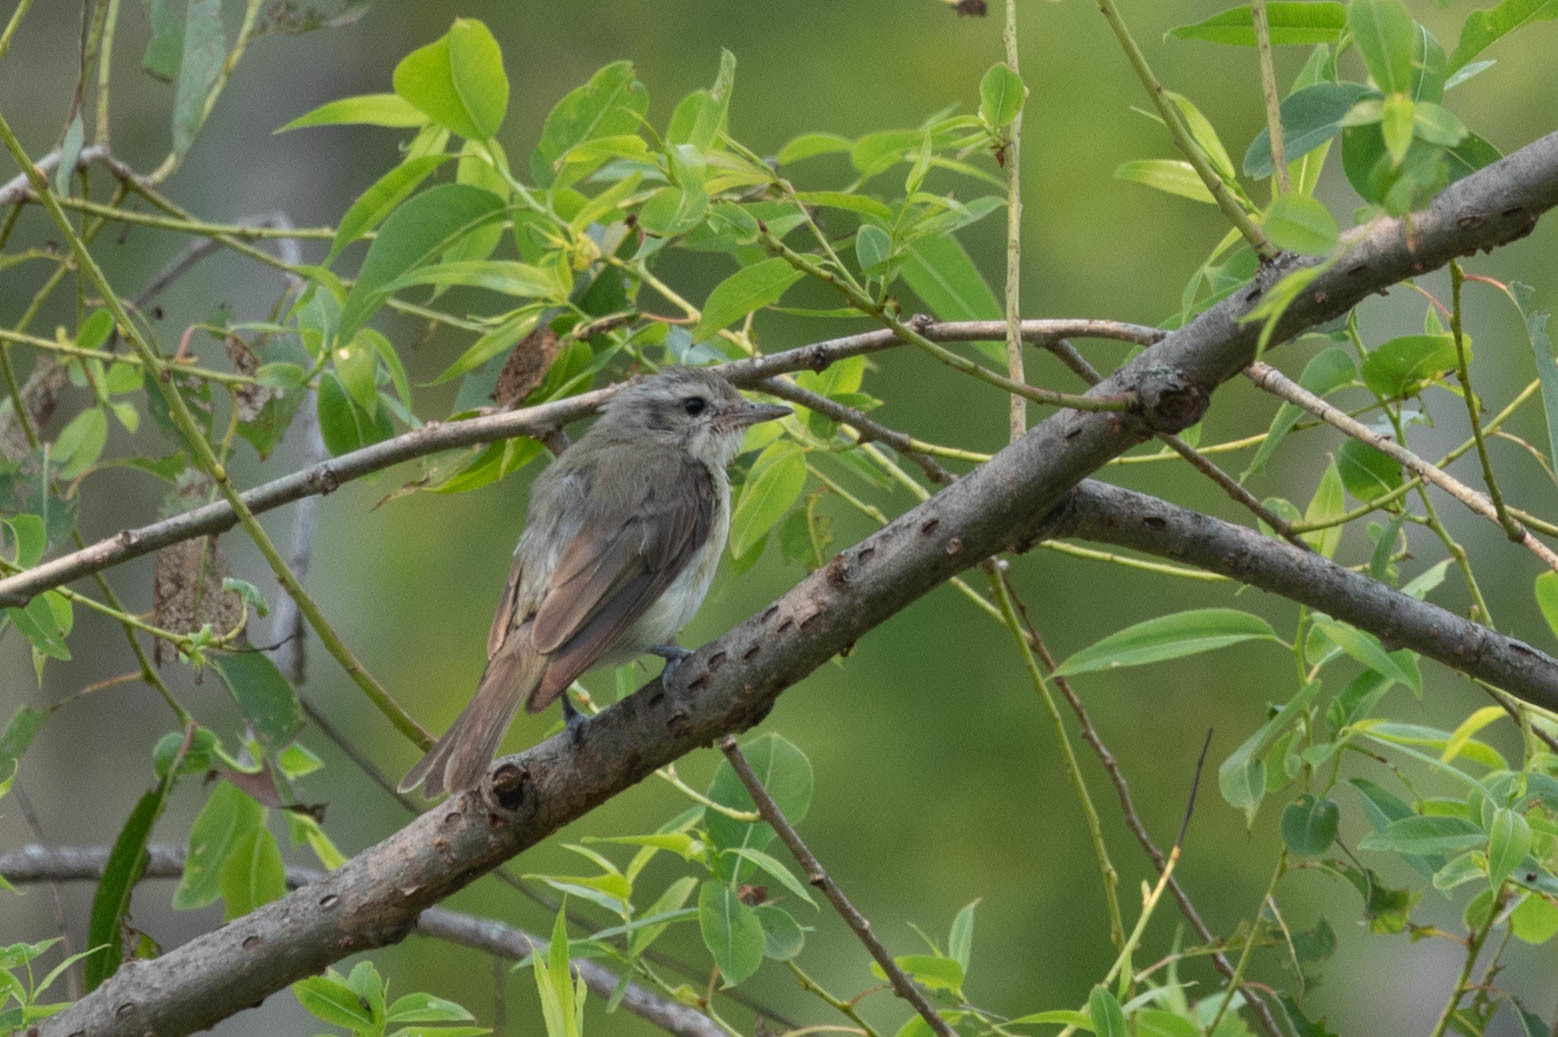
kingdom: Animalia
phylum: Chordata
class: Aves
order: Passeriformes
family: Vireonidae
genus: Vireo
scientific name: Vireo gilvus
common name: Warbling vireo
